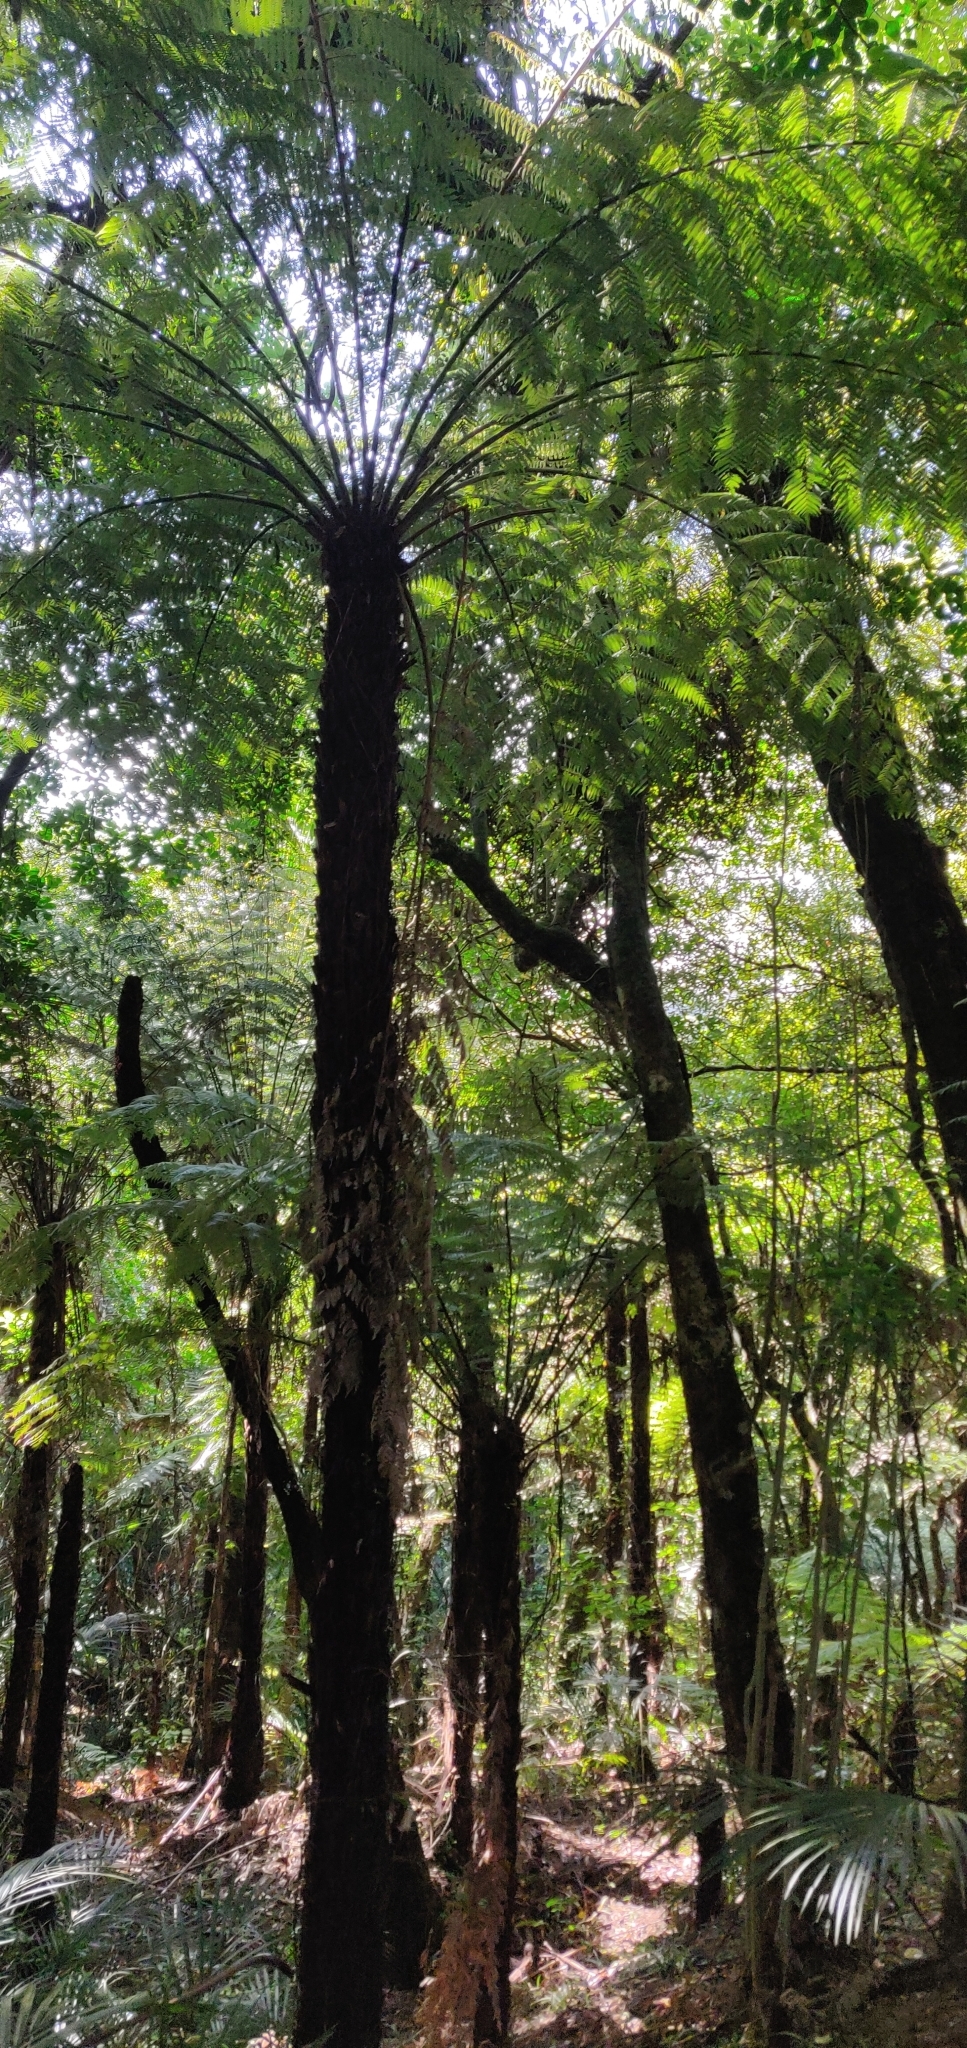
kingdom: Plantae
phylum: Tracheophyta
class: Polypodiopsida
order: Cyatheales
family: Cyatheaceae
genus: Cyathea
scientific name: Cyathea cunninghamii
